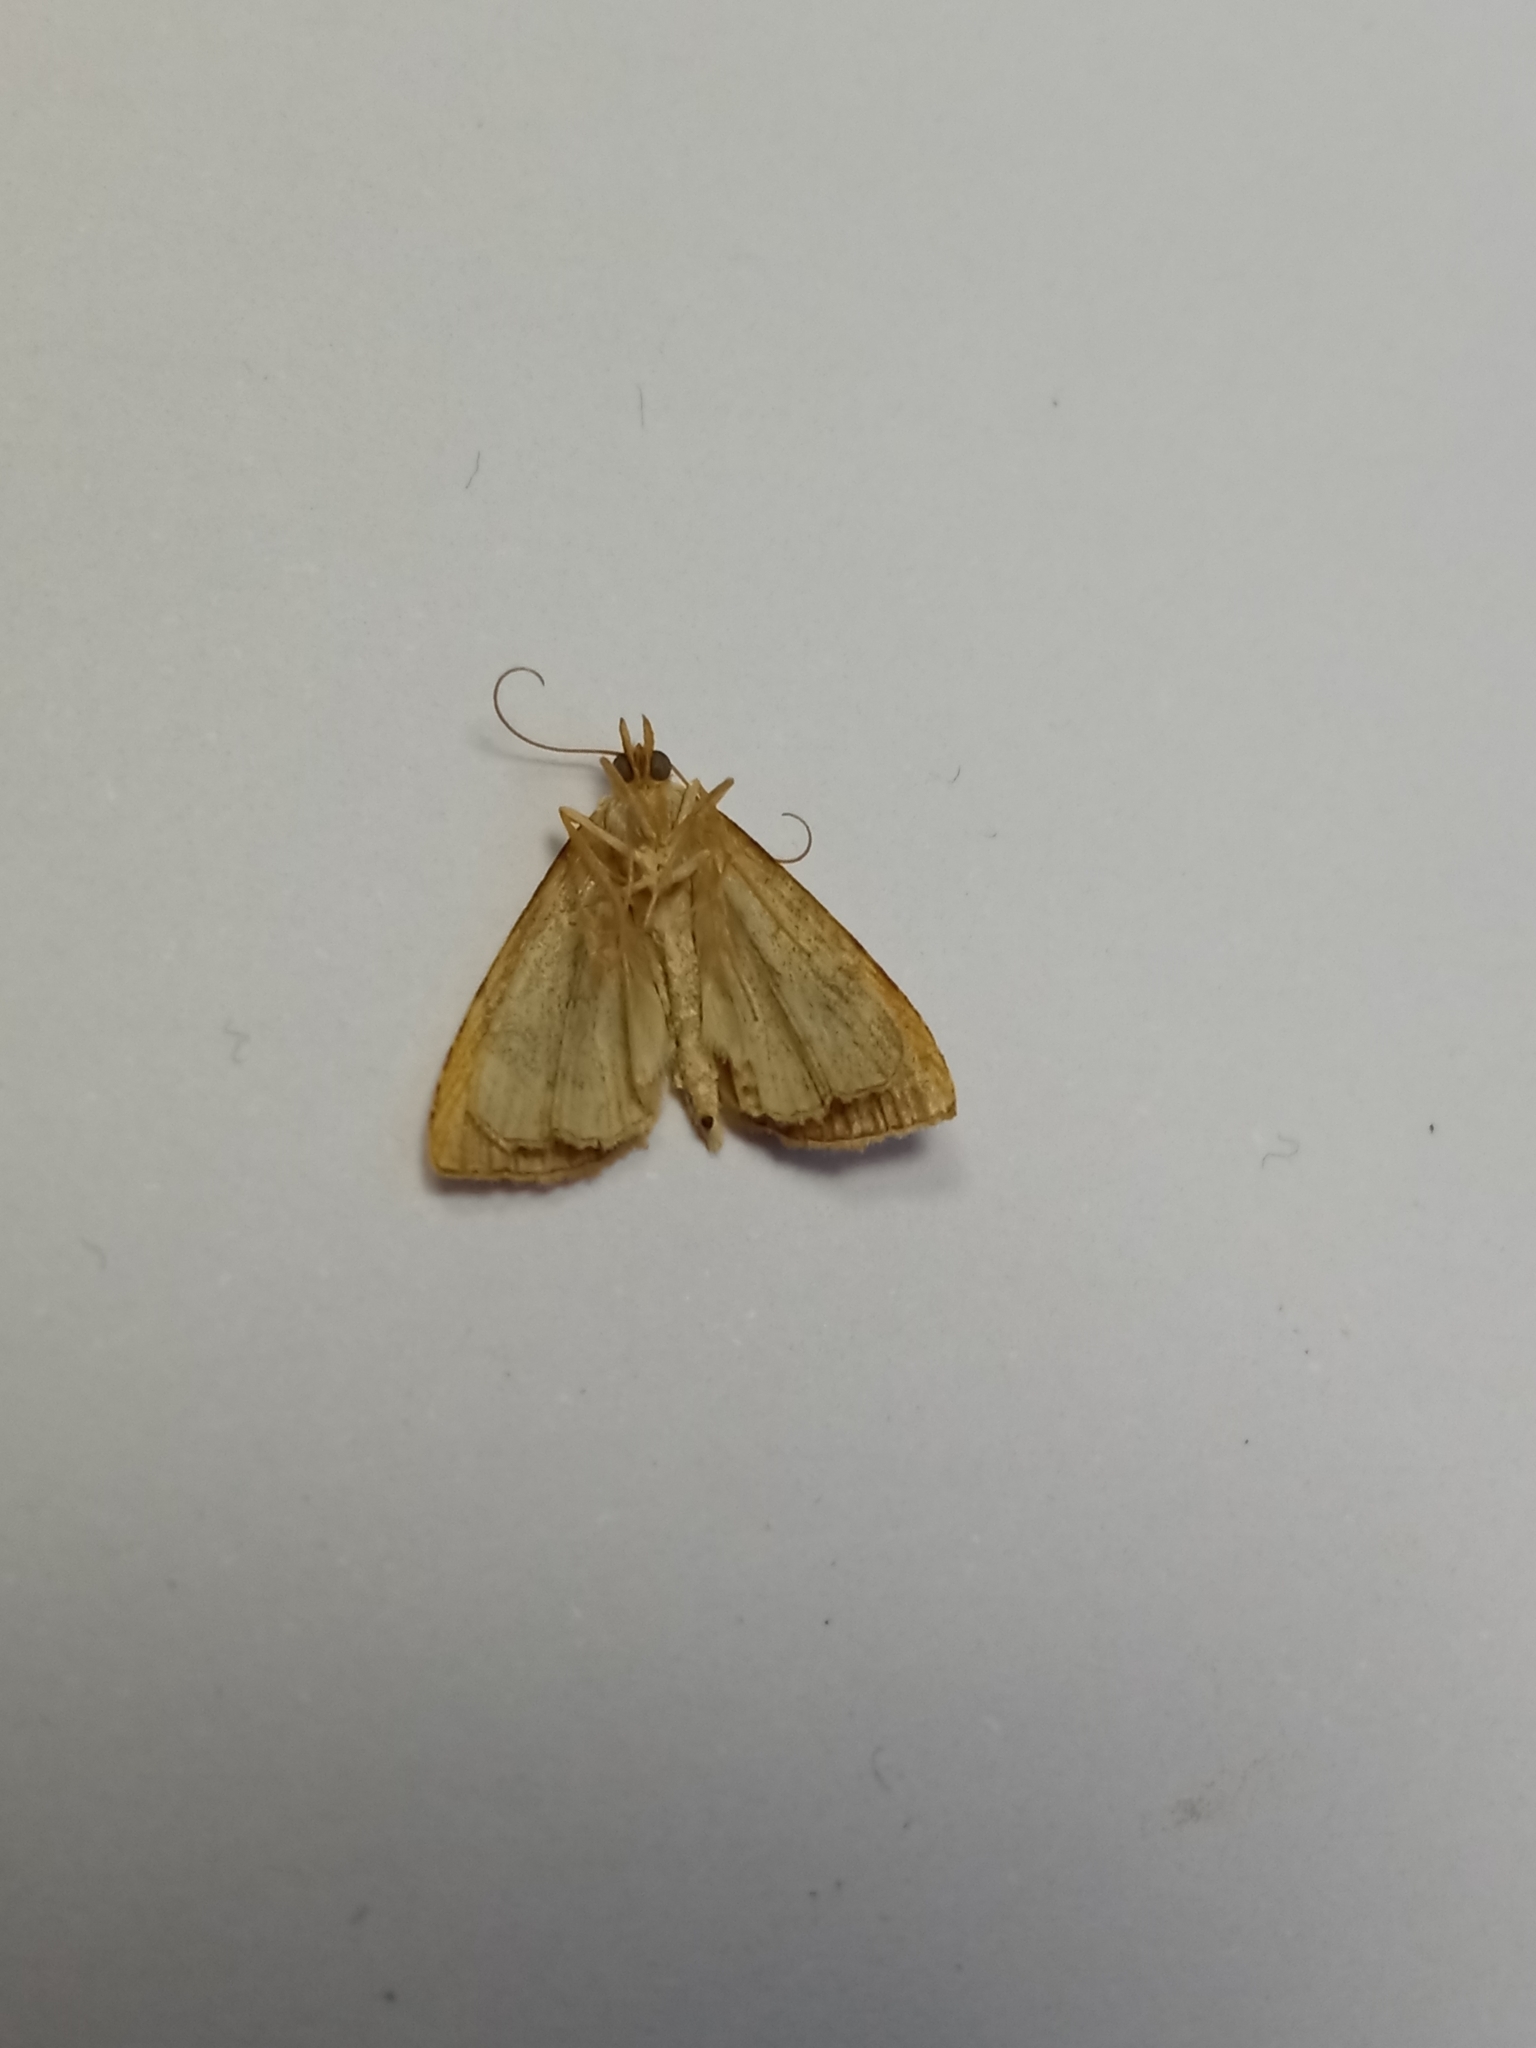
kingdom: Animalia
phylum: Arthropoda
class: Insecta
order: Lepidoptera
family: Erebidae
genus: Rivula
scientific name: Rivula sericealis
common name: Straw dot
